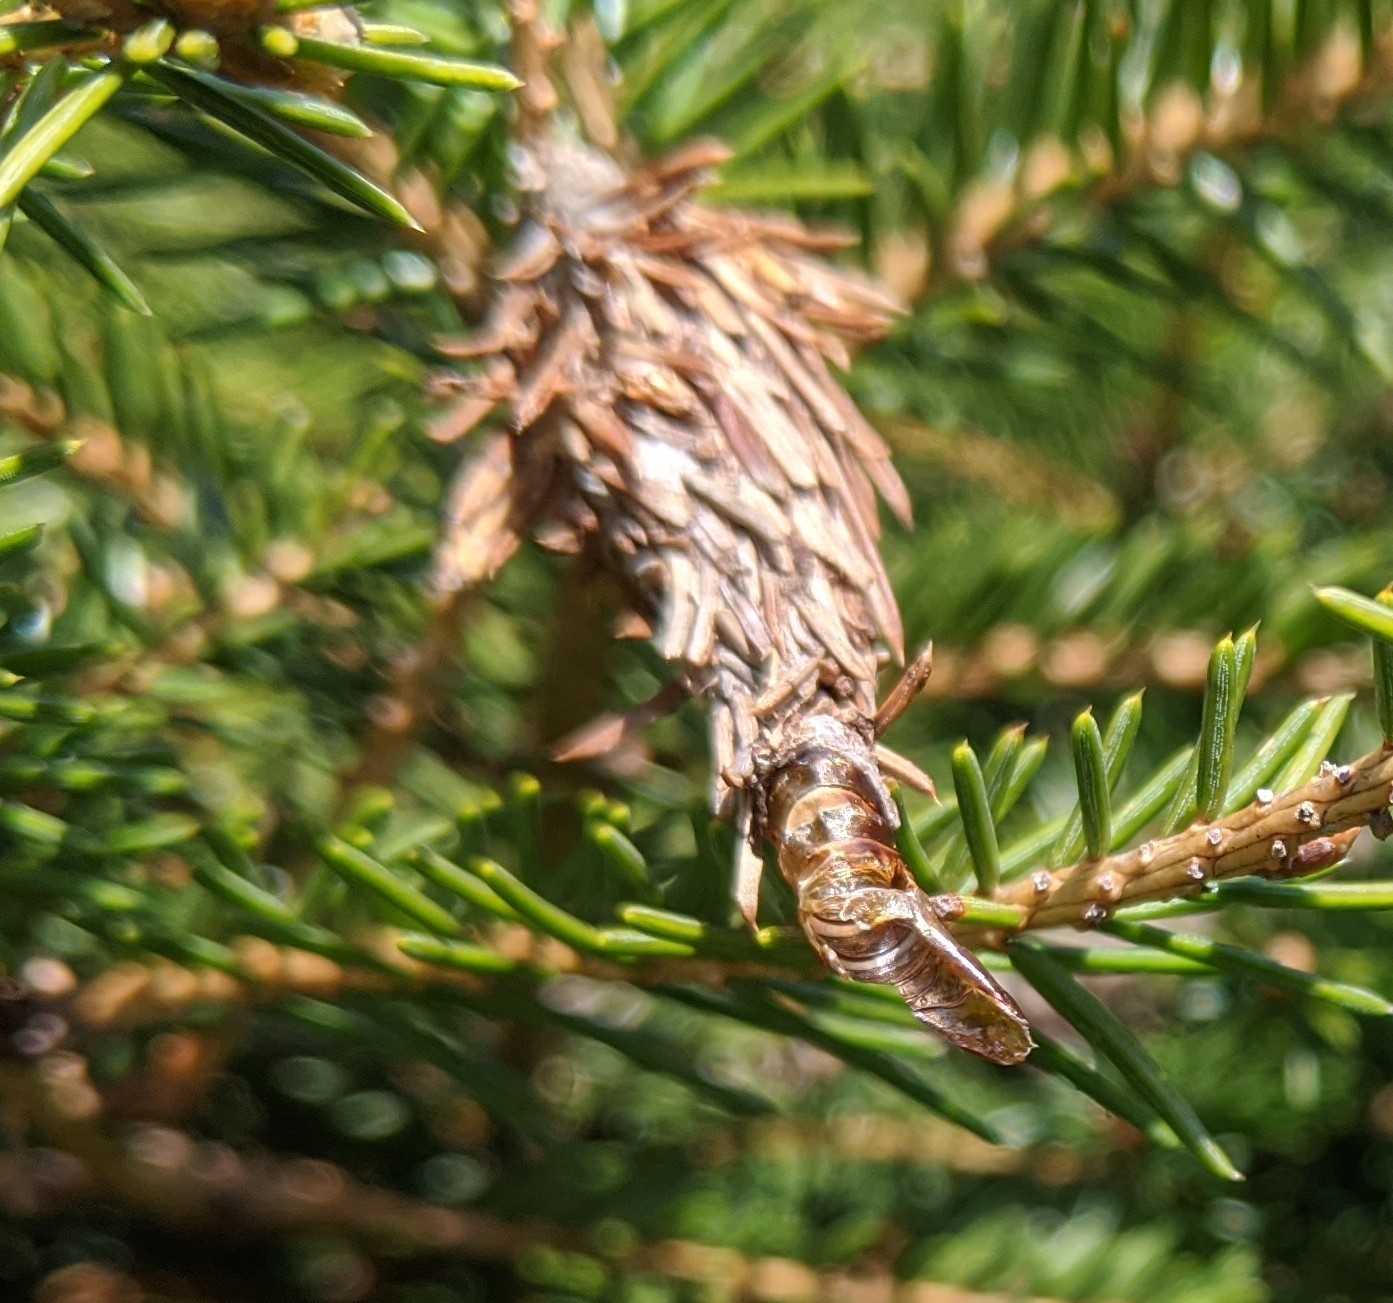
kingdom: Animalia
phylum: Arthropoda
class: Insecta
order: Lepidoptera
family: Psychidae
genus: Thyridopteryx
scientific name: Thyridopteryx ephemeraeformis
